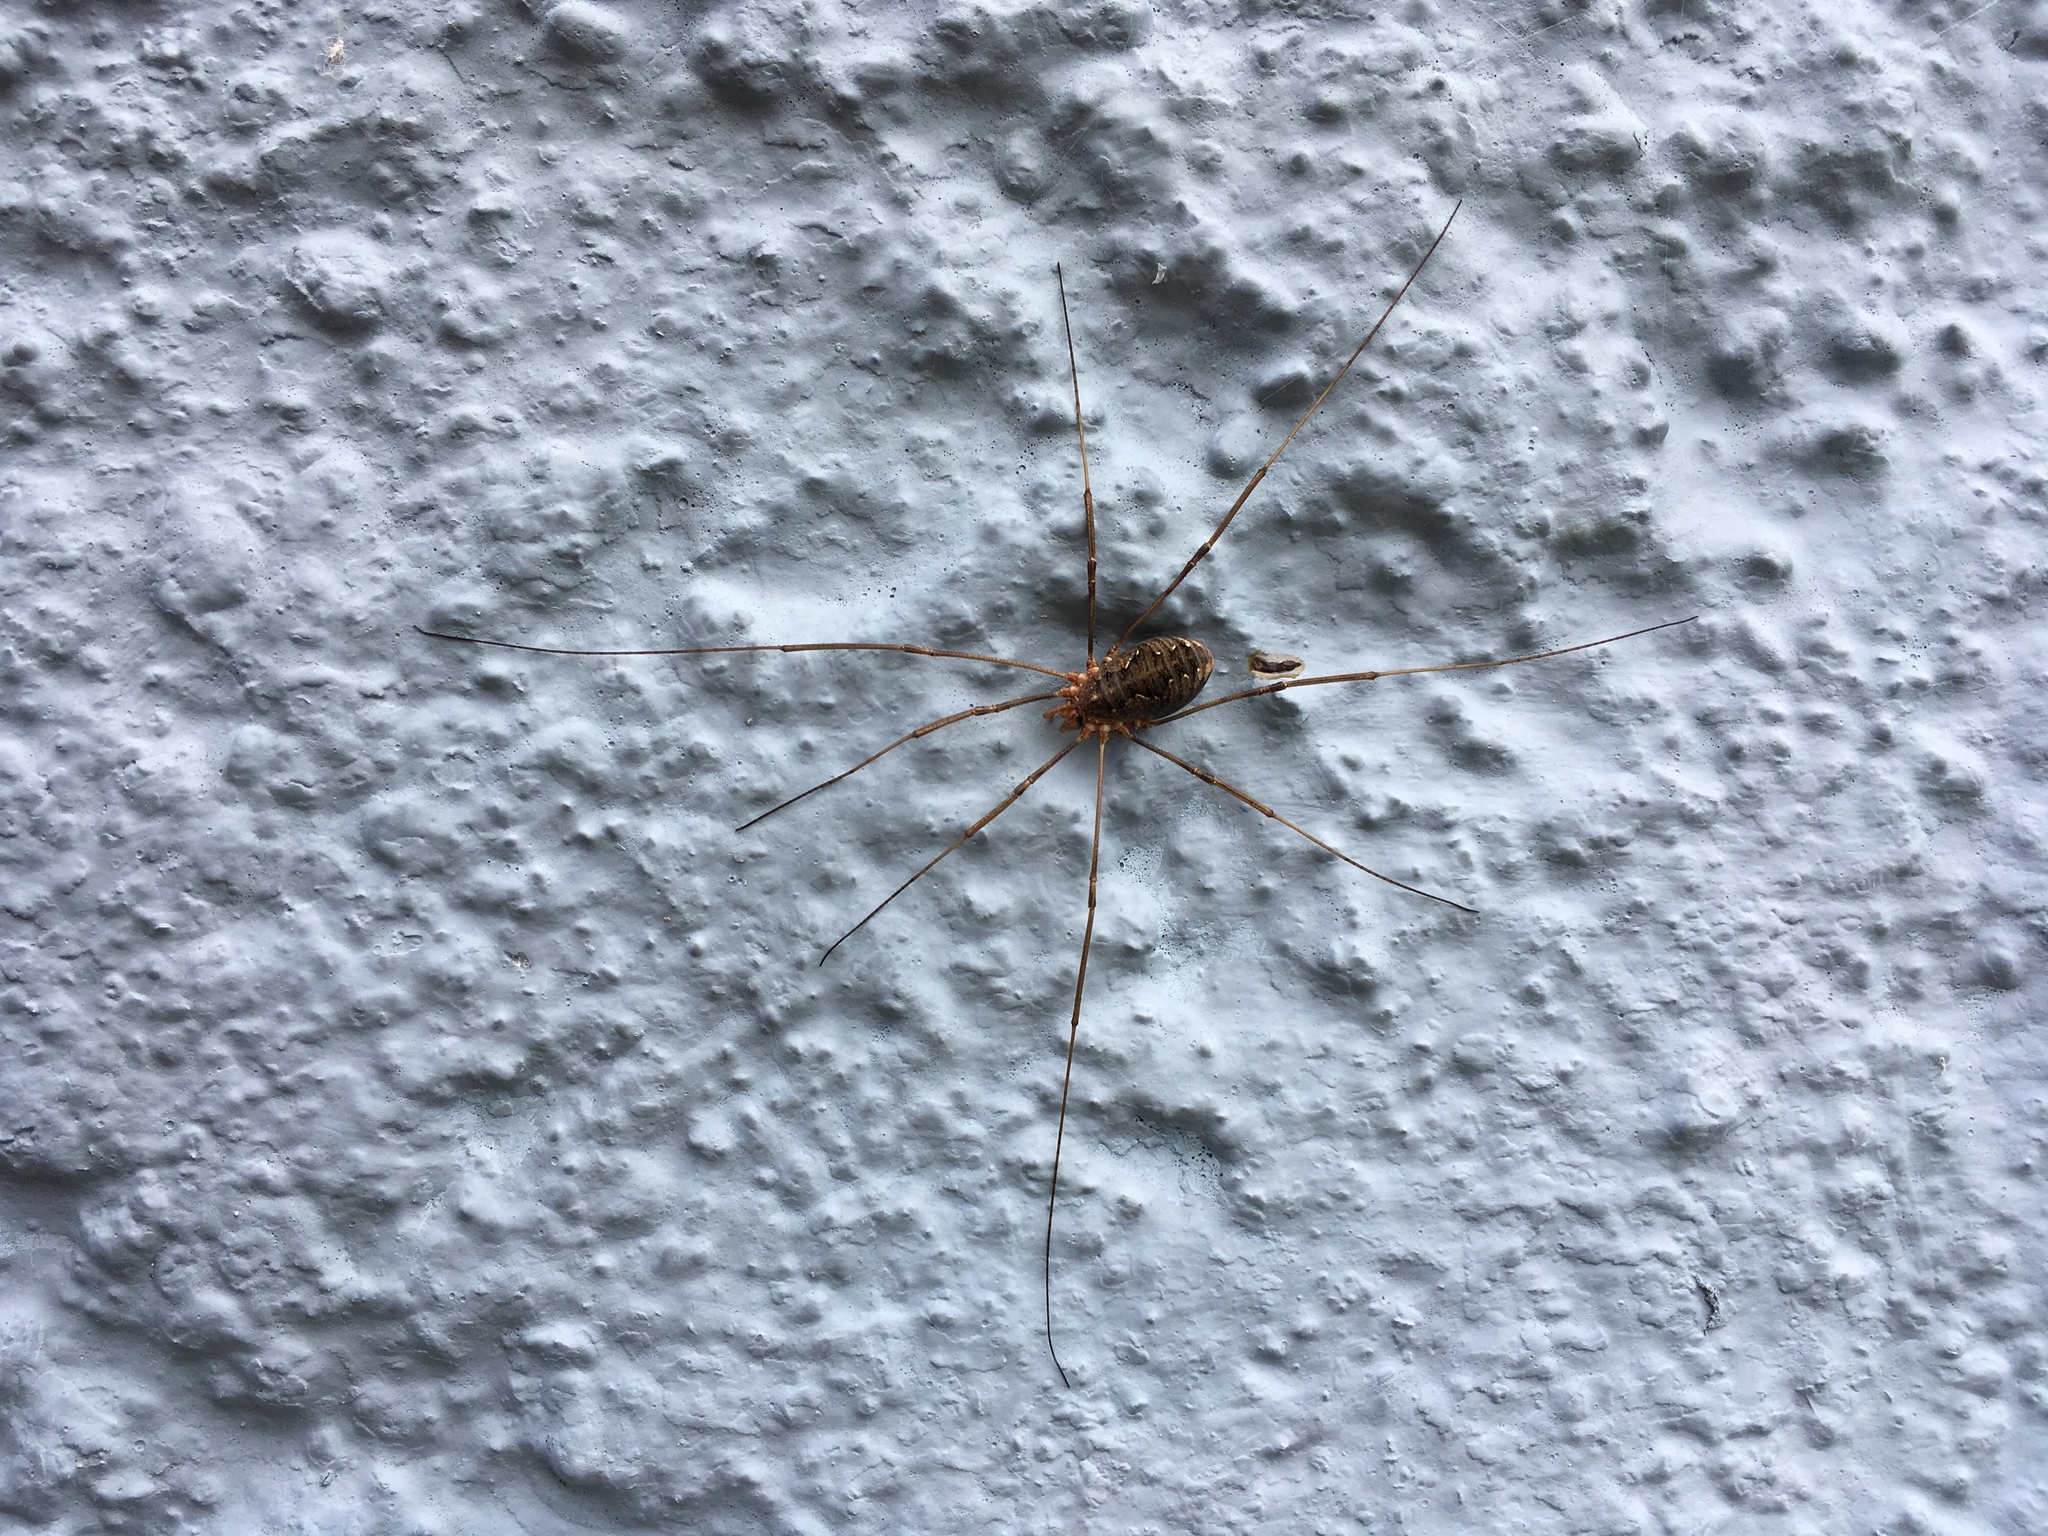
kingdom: Animalia
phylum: Arthropoda
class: Arachnida
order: Opiliones
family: Phalangiidae
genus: Phalangium
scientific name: Phalangium opilio
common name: Daddy longleg
